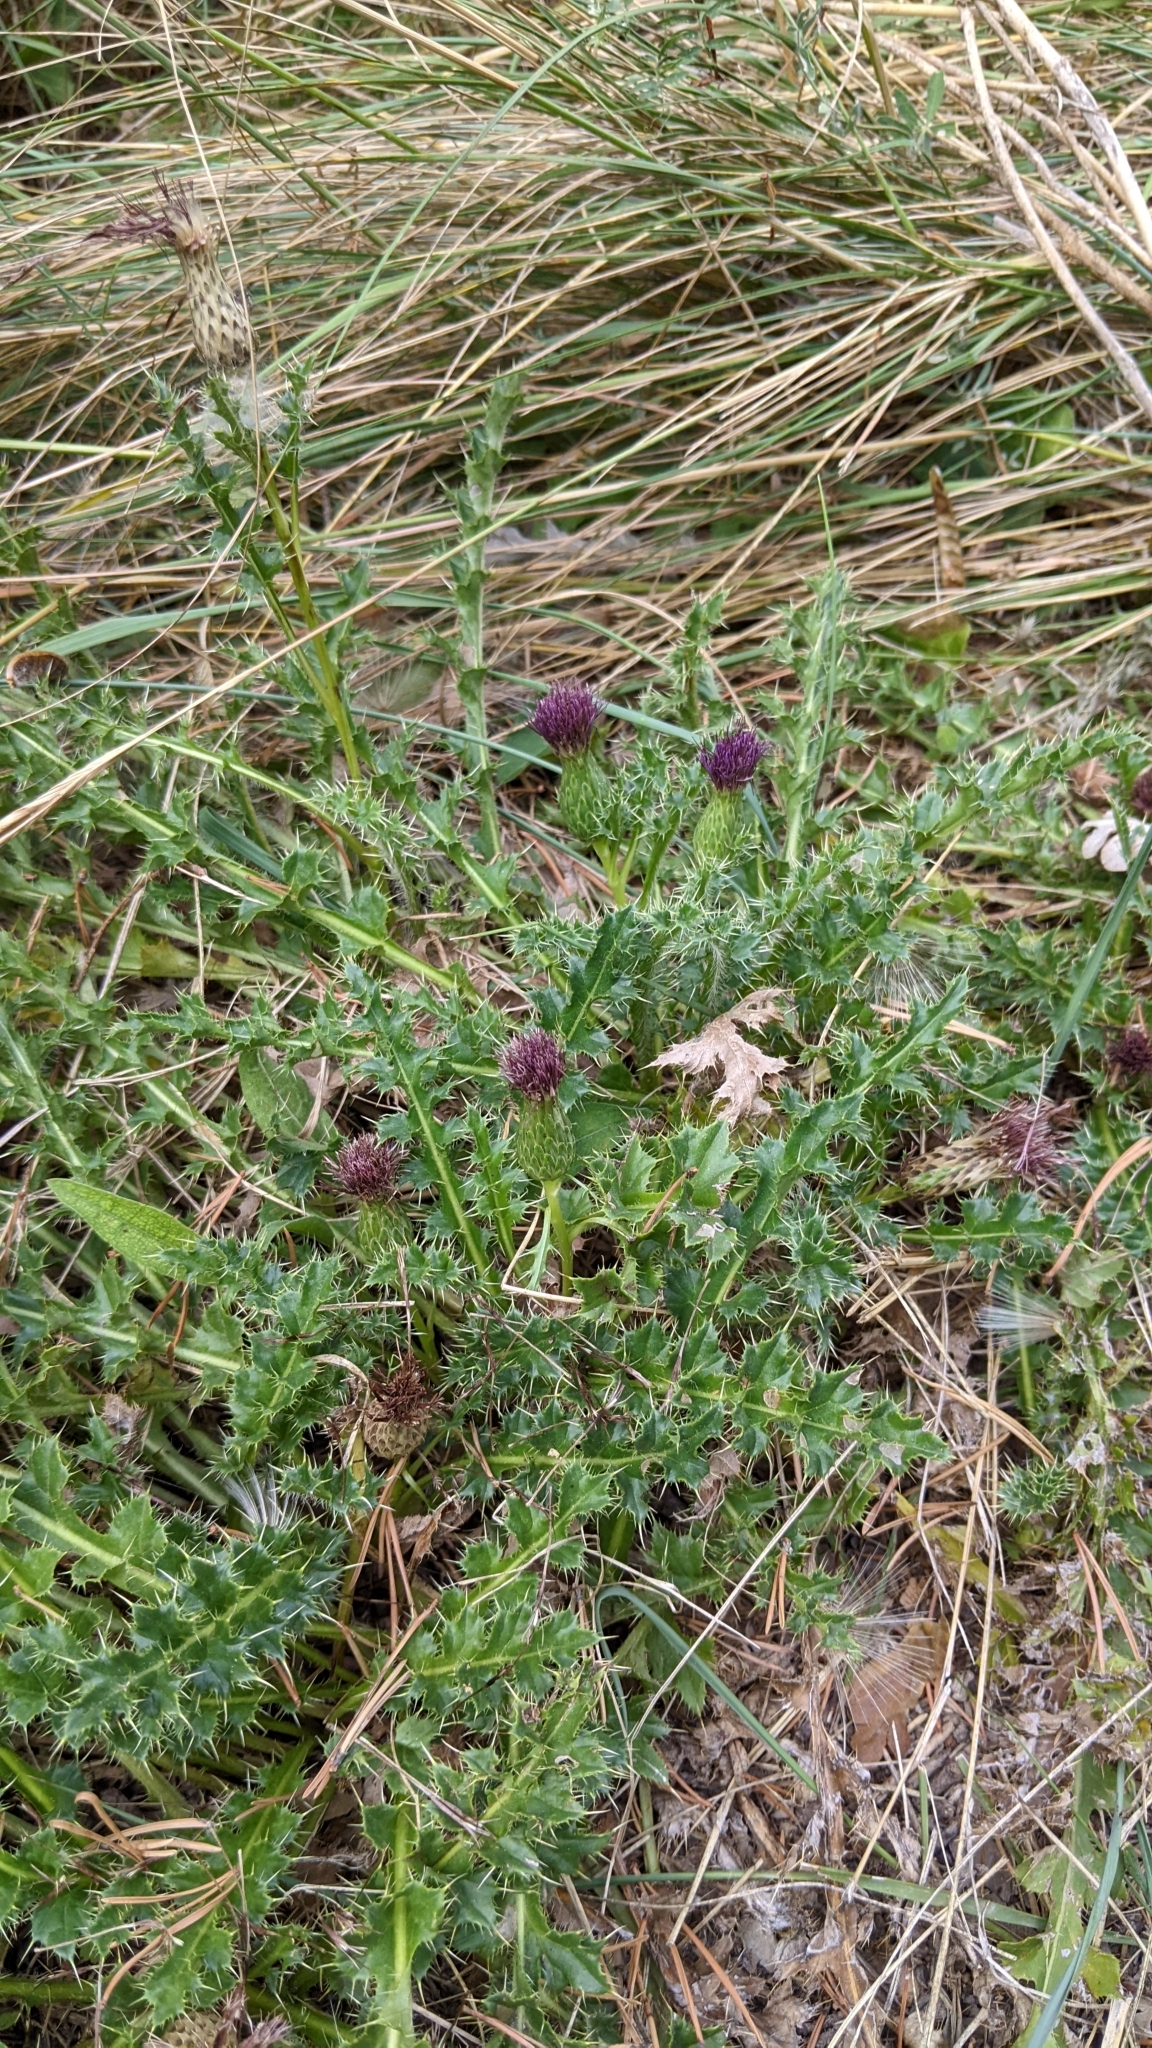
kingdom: Plantae
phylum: Tracheophyta
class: Magnoliopsida
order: Asterales
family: Asteraceae
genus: Cirsium
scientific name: Cirsium acaulon
